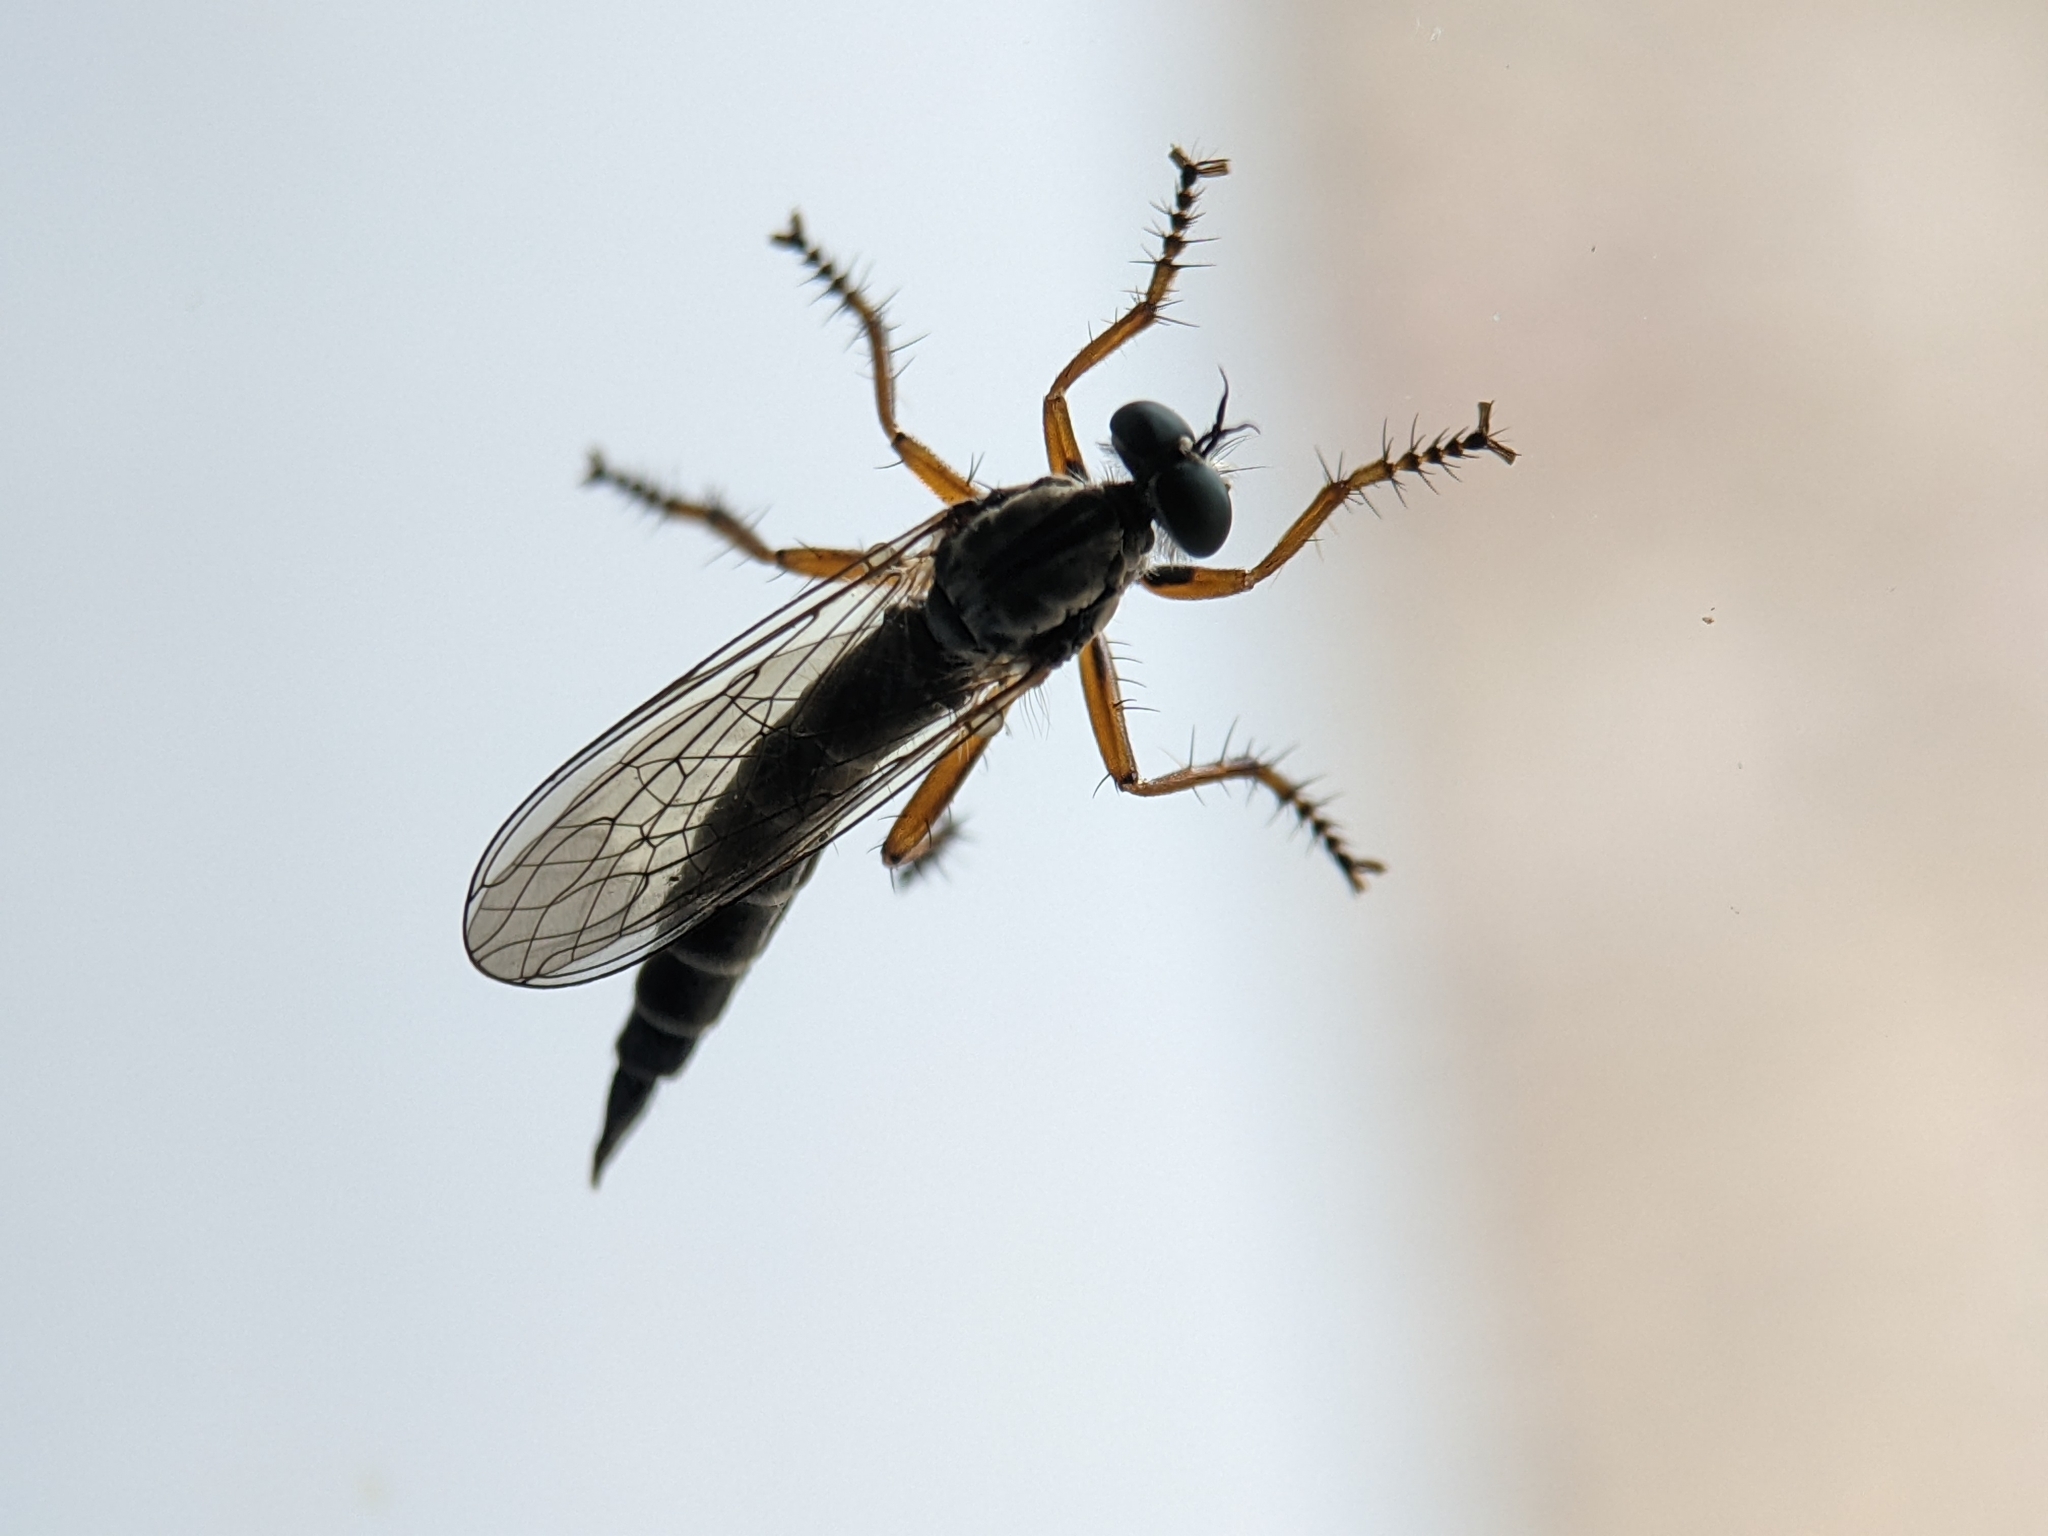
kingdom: Animalia
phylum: Arthropoda
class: Insecta
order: Diptera
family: Asilidae
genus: Neomochtherus
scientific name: Neomochtherus pallipes
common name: Devon red-legged robberfly
